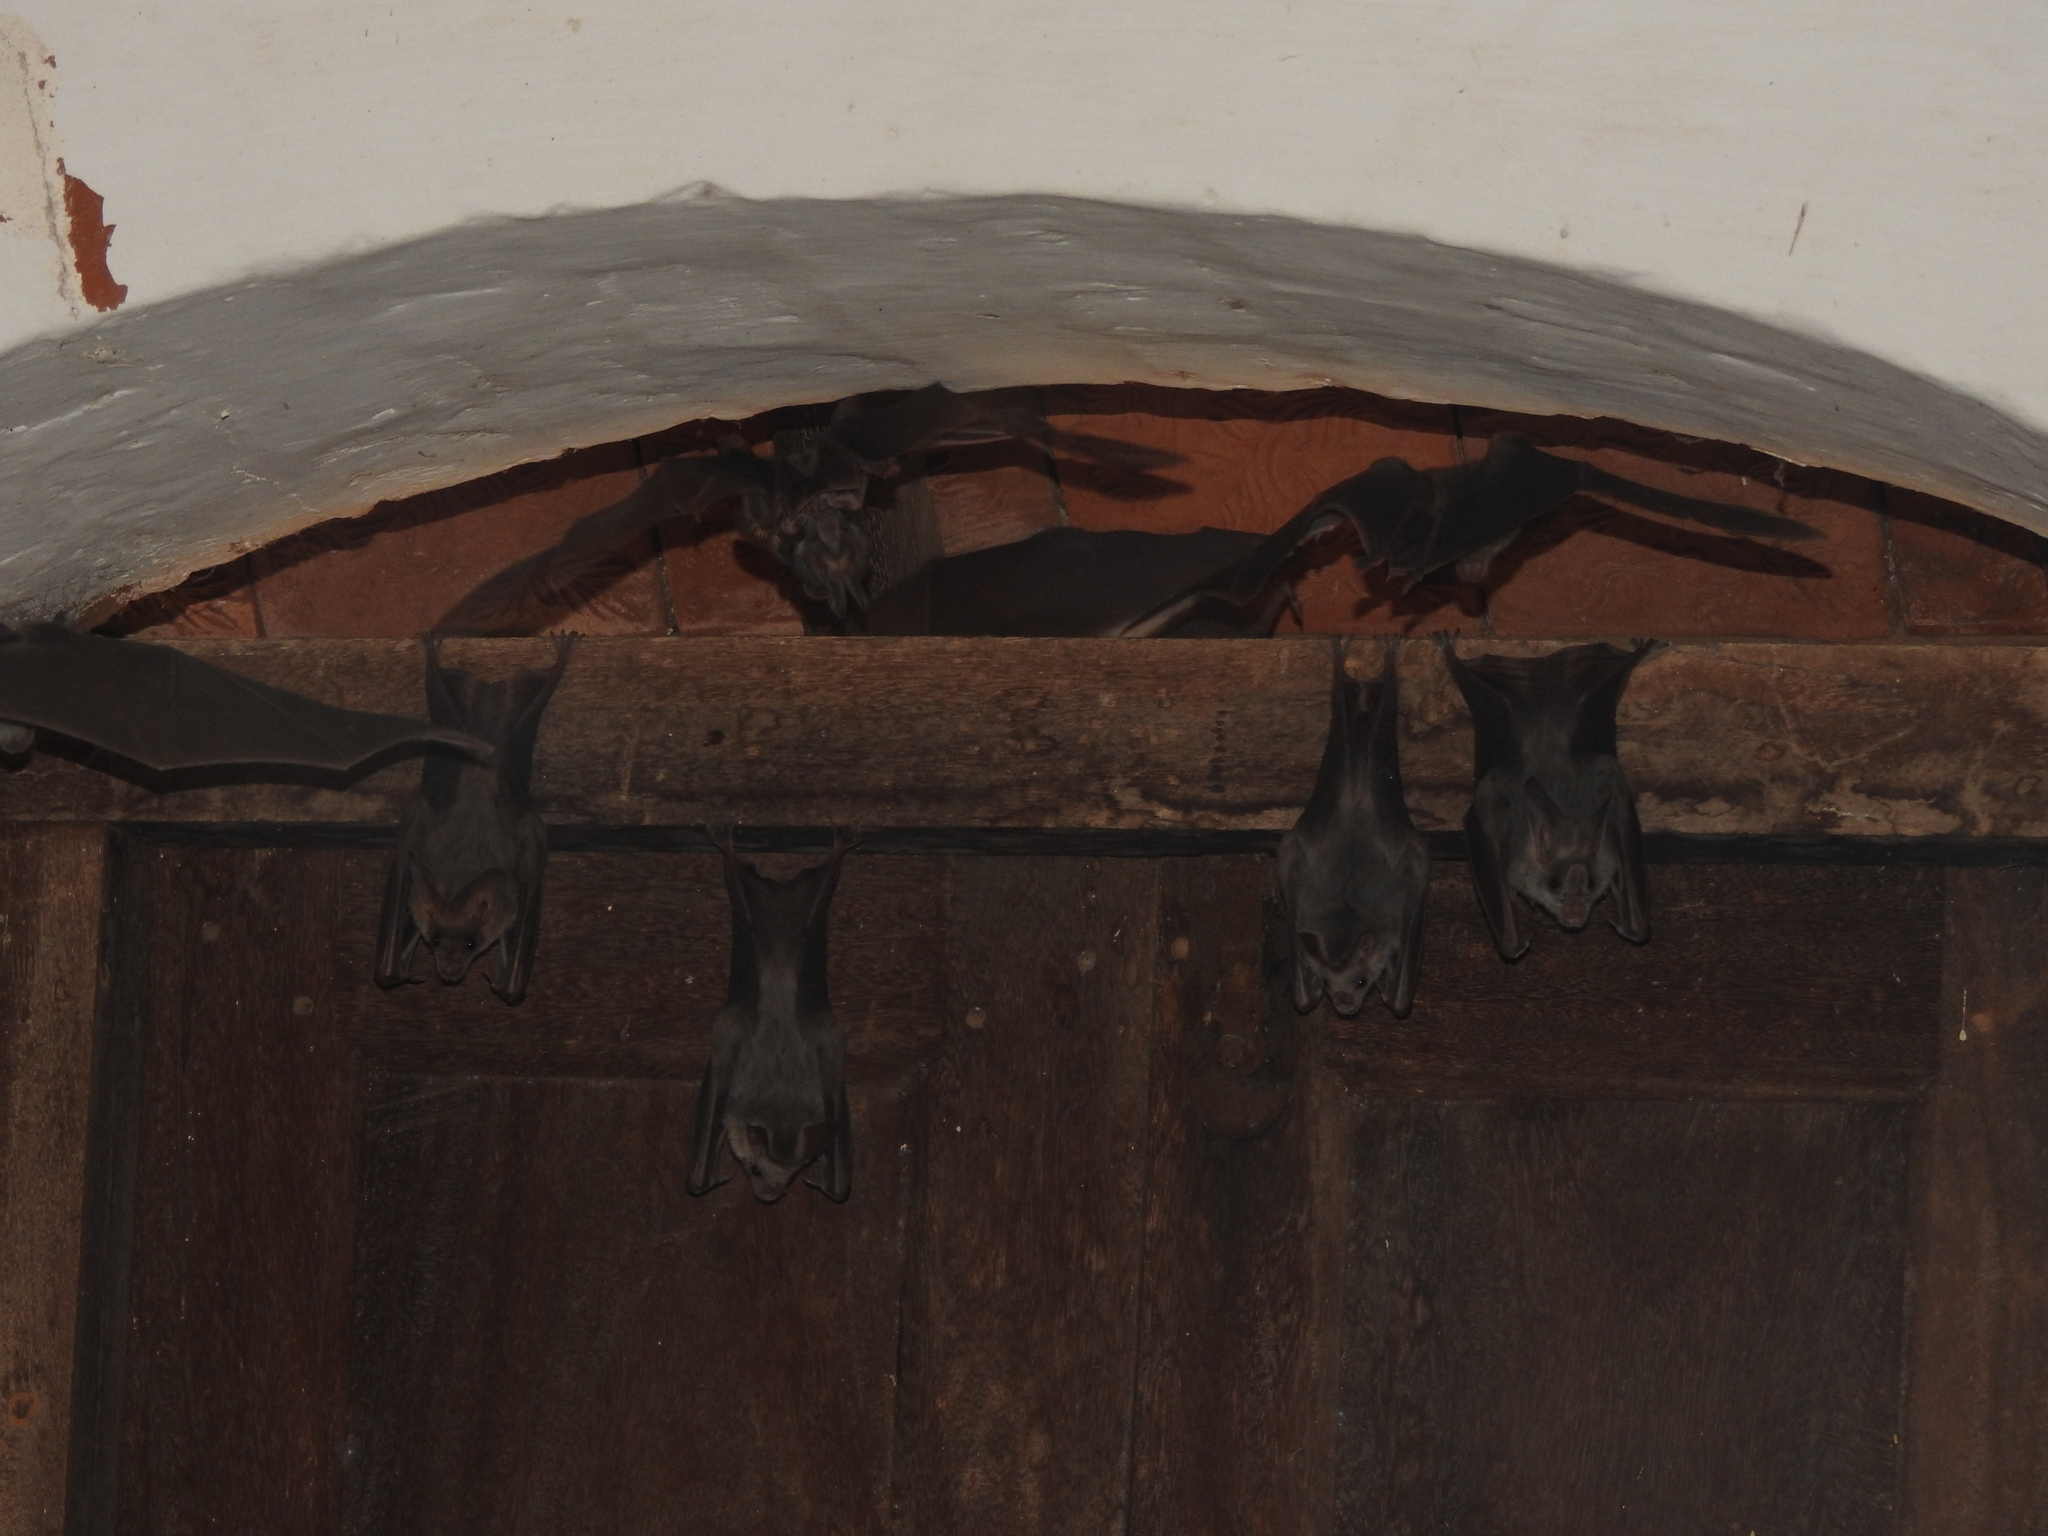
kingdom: Animalia
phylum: Chordata
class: Mammalia
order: Chiroptera
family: Megadermatidae
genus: Lyroderma
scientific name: Lyroderma lyra
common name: Greater false vampire bat
